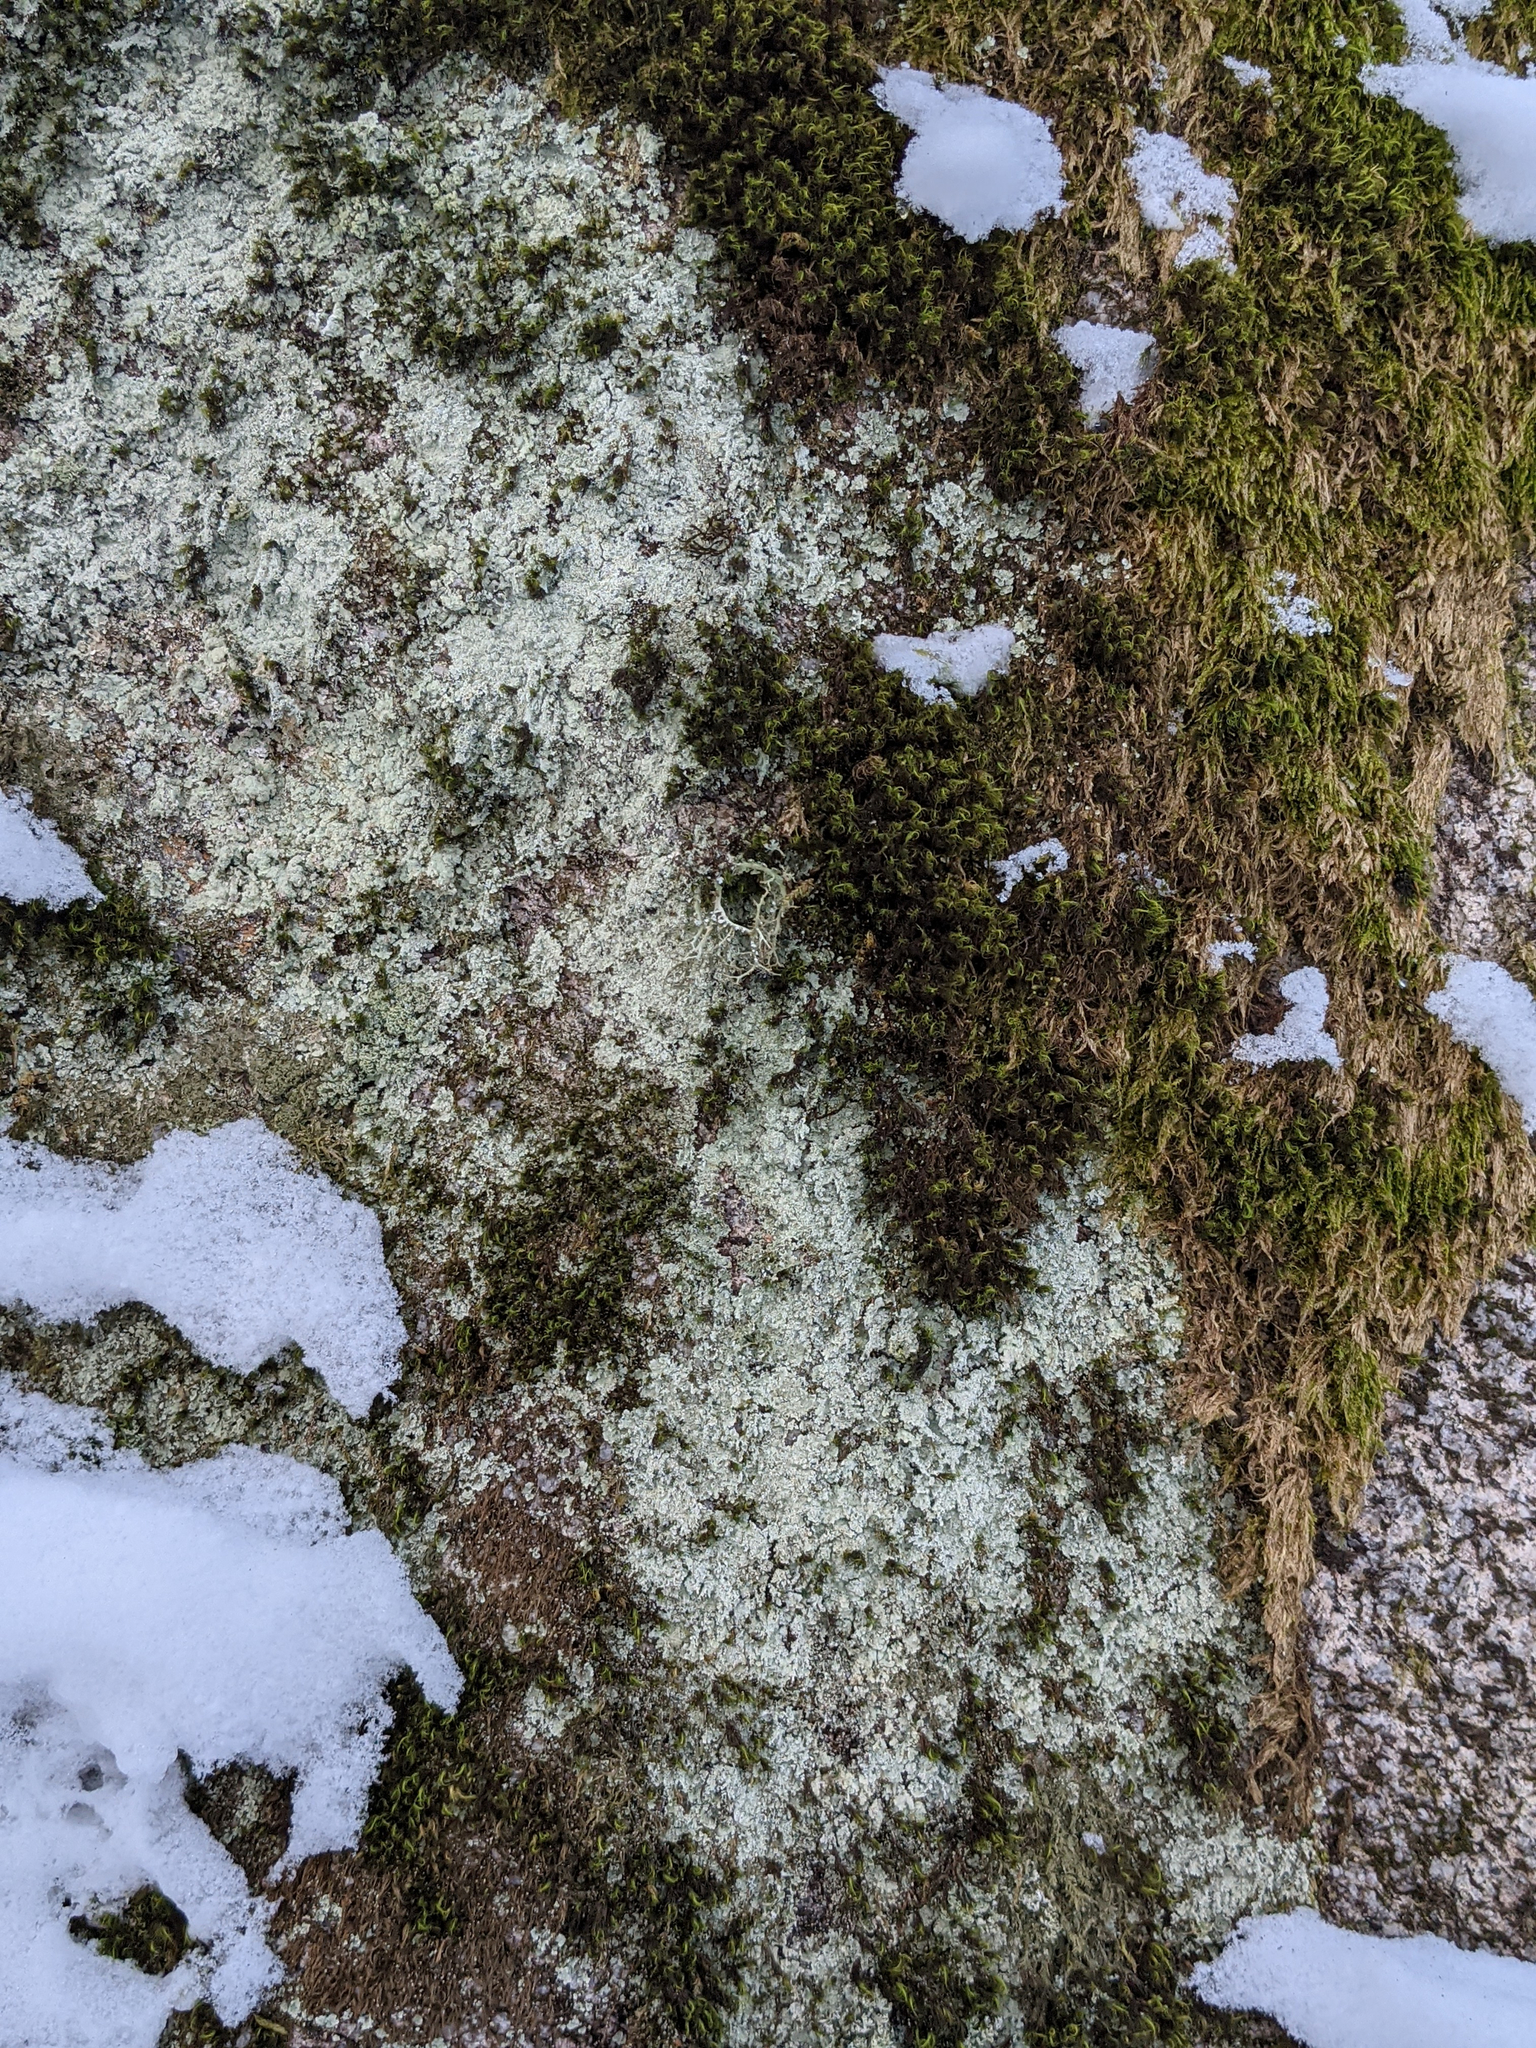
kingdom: Plantae
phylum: Bryophyta
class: Bryopsida
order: Orthotrichales
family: Orthotrichaceae
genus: Ulota
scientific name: Ulota crispa
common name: Crisped pincushion moss
